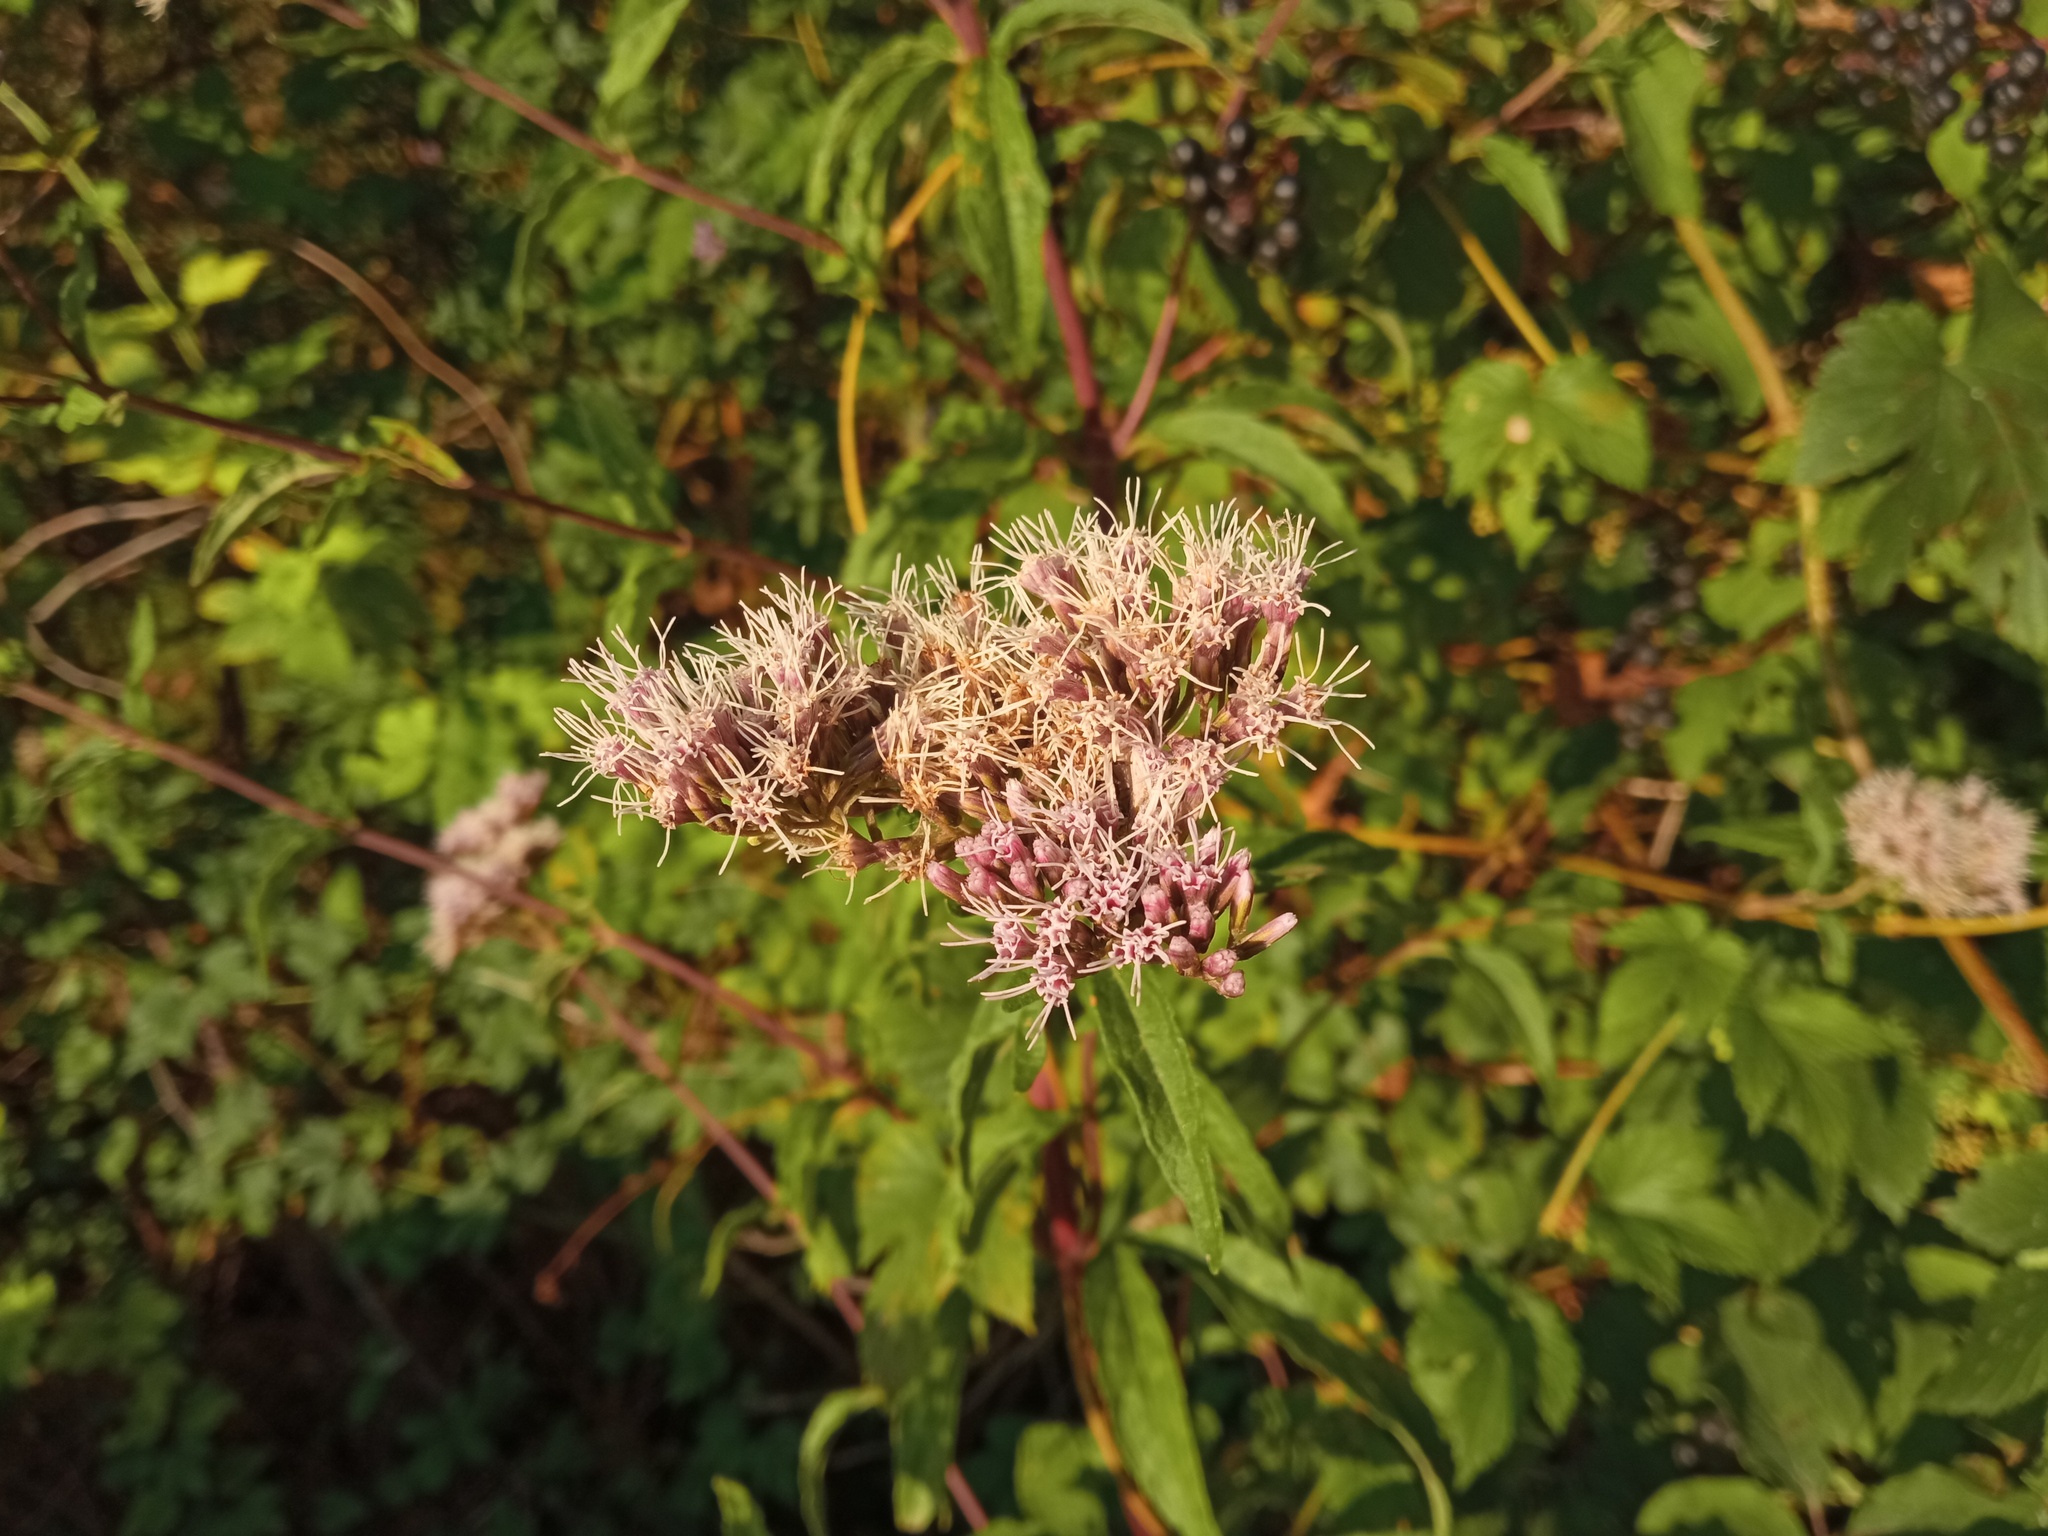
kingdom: Plantae
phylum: Tracheophyta
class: Magnoliopsida
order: Asterales
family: Asteraceae
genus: Eupatorium
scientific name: Eupatorium cannabinum
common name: Hemp-agrimony
